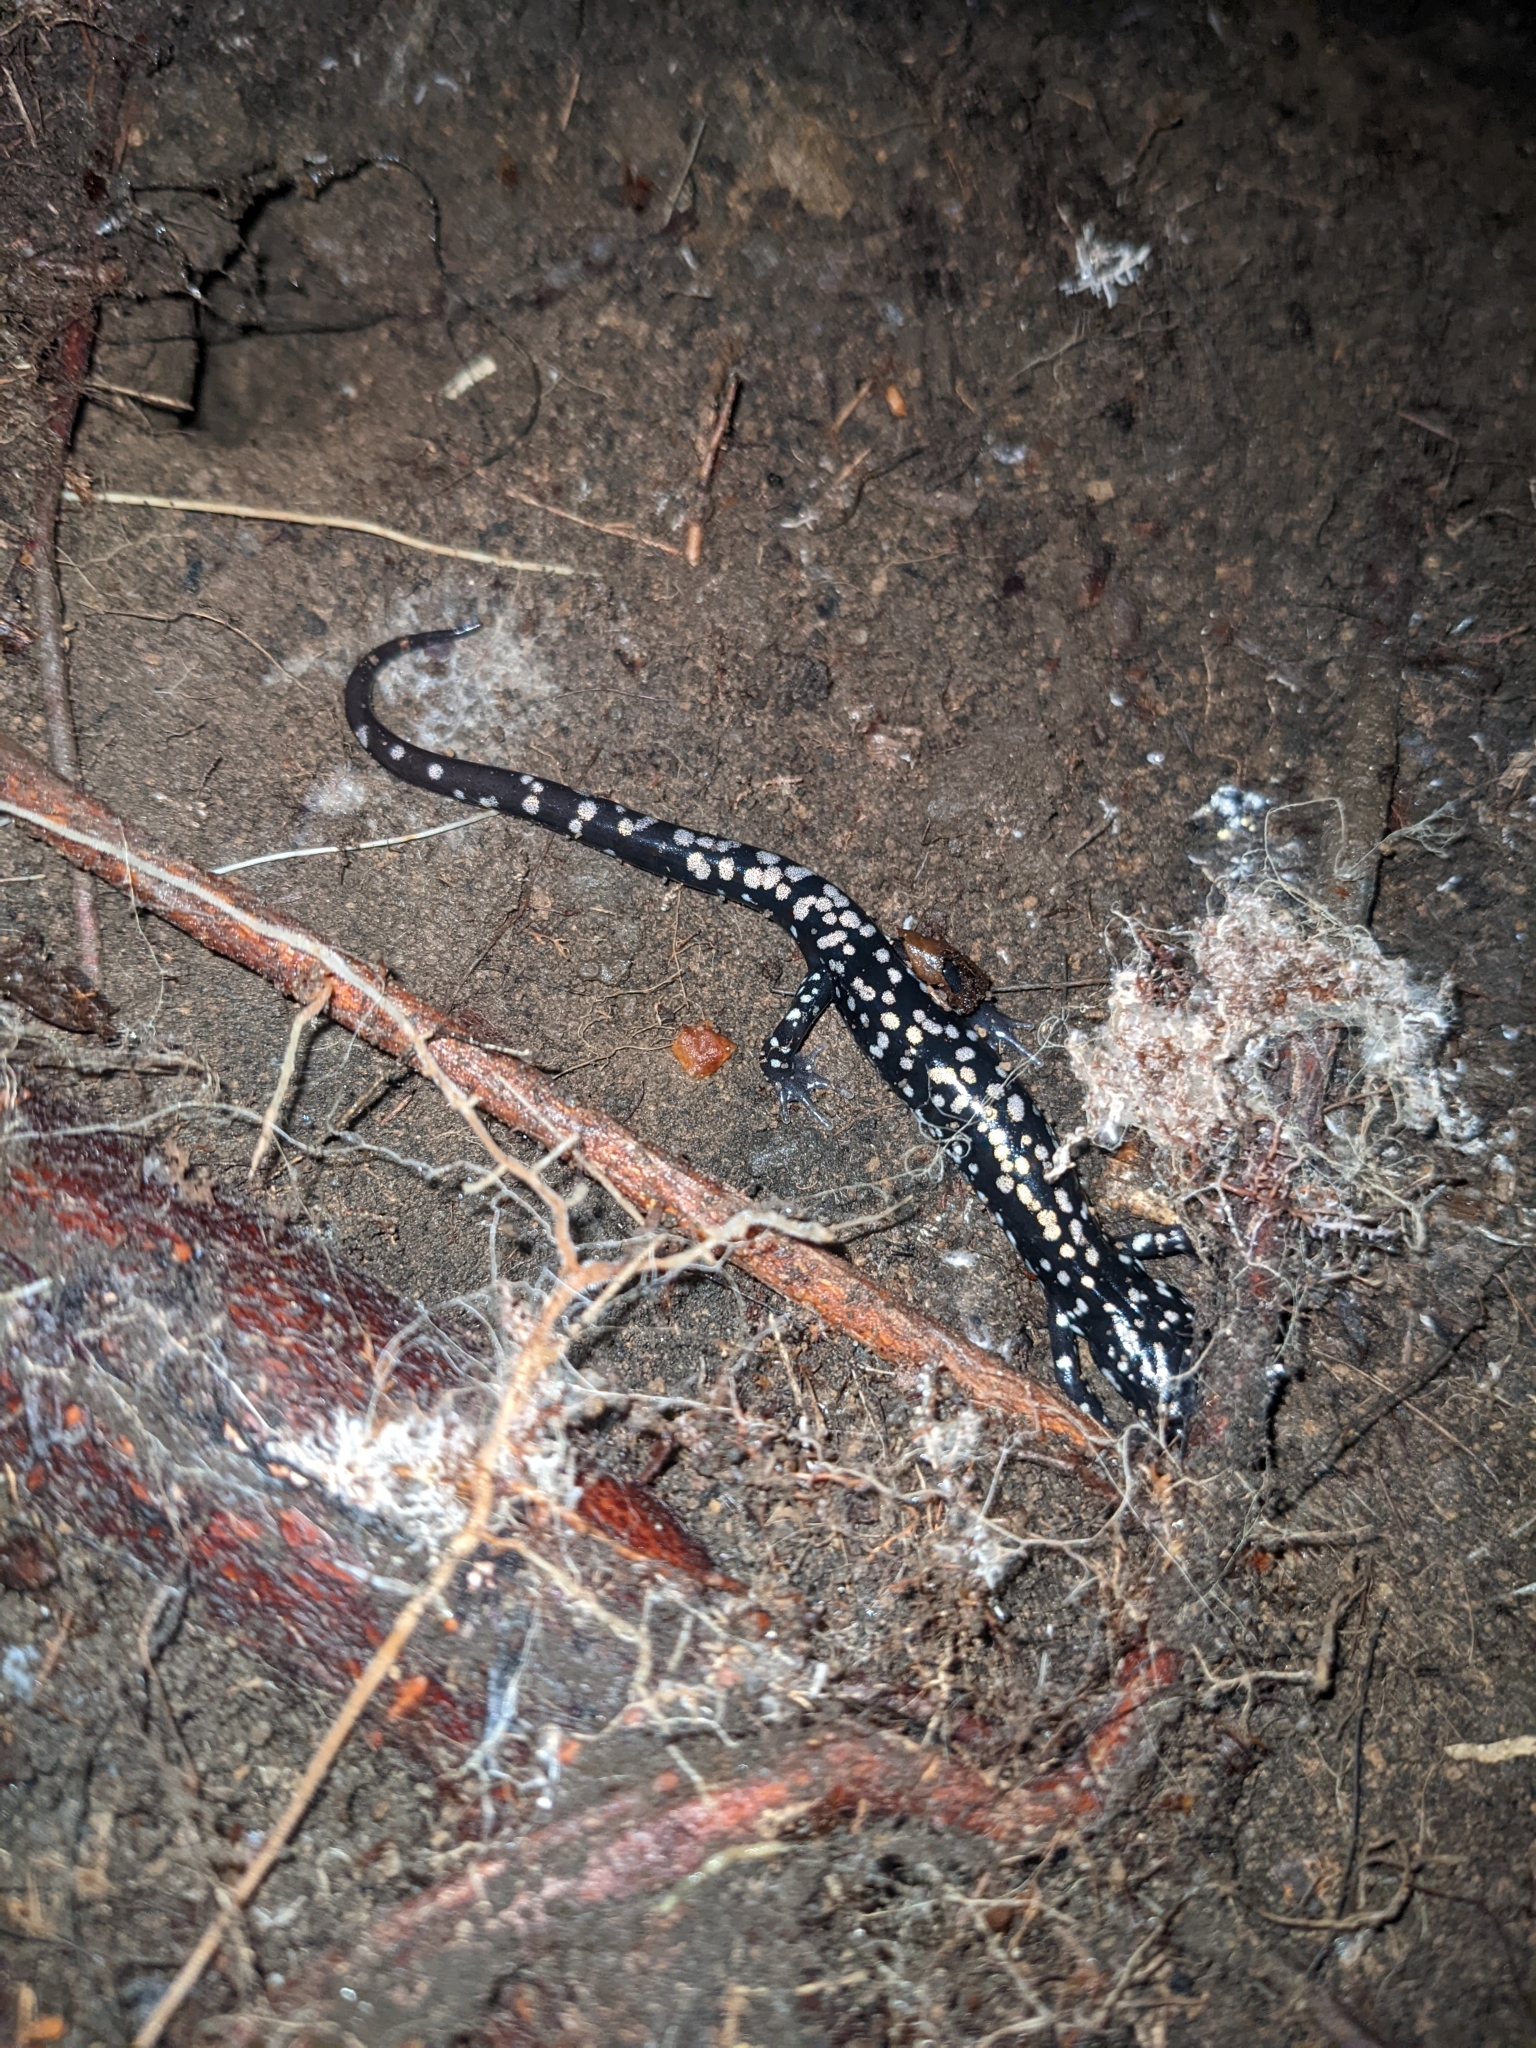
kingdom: Animalia
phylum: Chordata
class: Amphibia
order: Caudata
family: Plethodontidae
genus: Plethodon
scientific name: Plethodon glutinosus
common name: Northern slimy salamander
